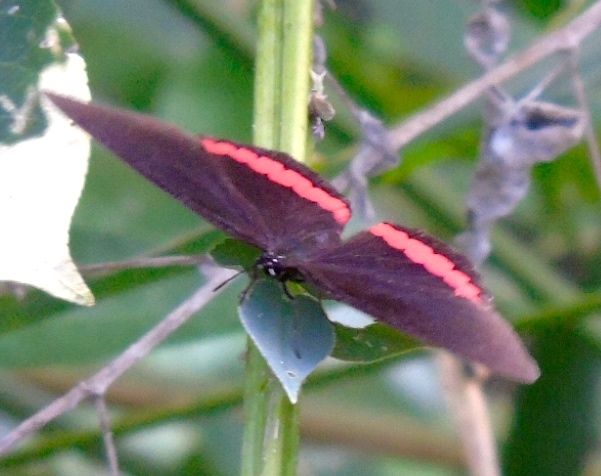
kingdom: Animalia
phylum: Arthropoda
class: Insecta
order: Lepidoptera
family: Nymphalidae
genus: Biblis
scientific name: Biblis aganisa
